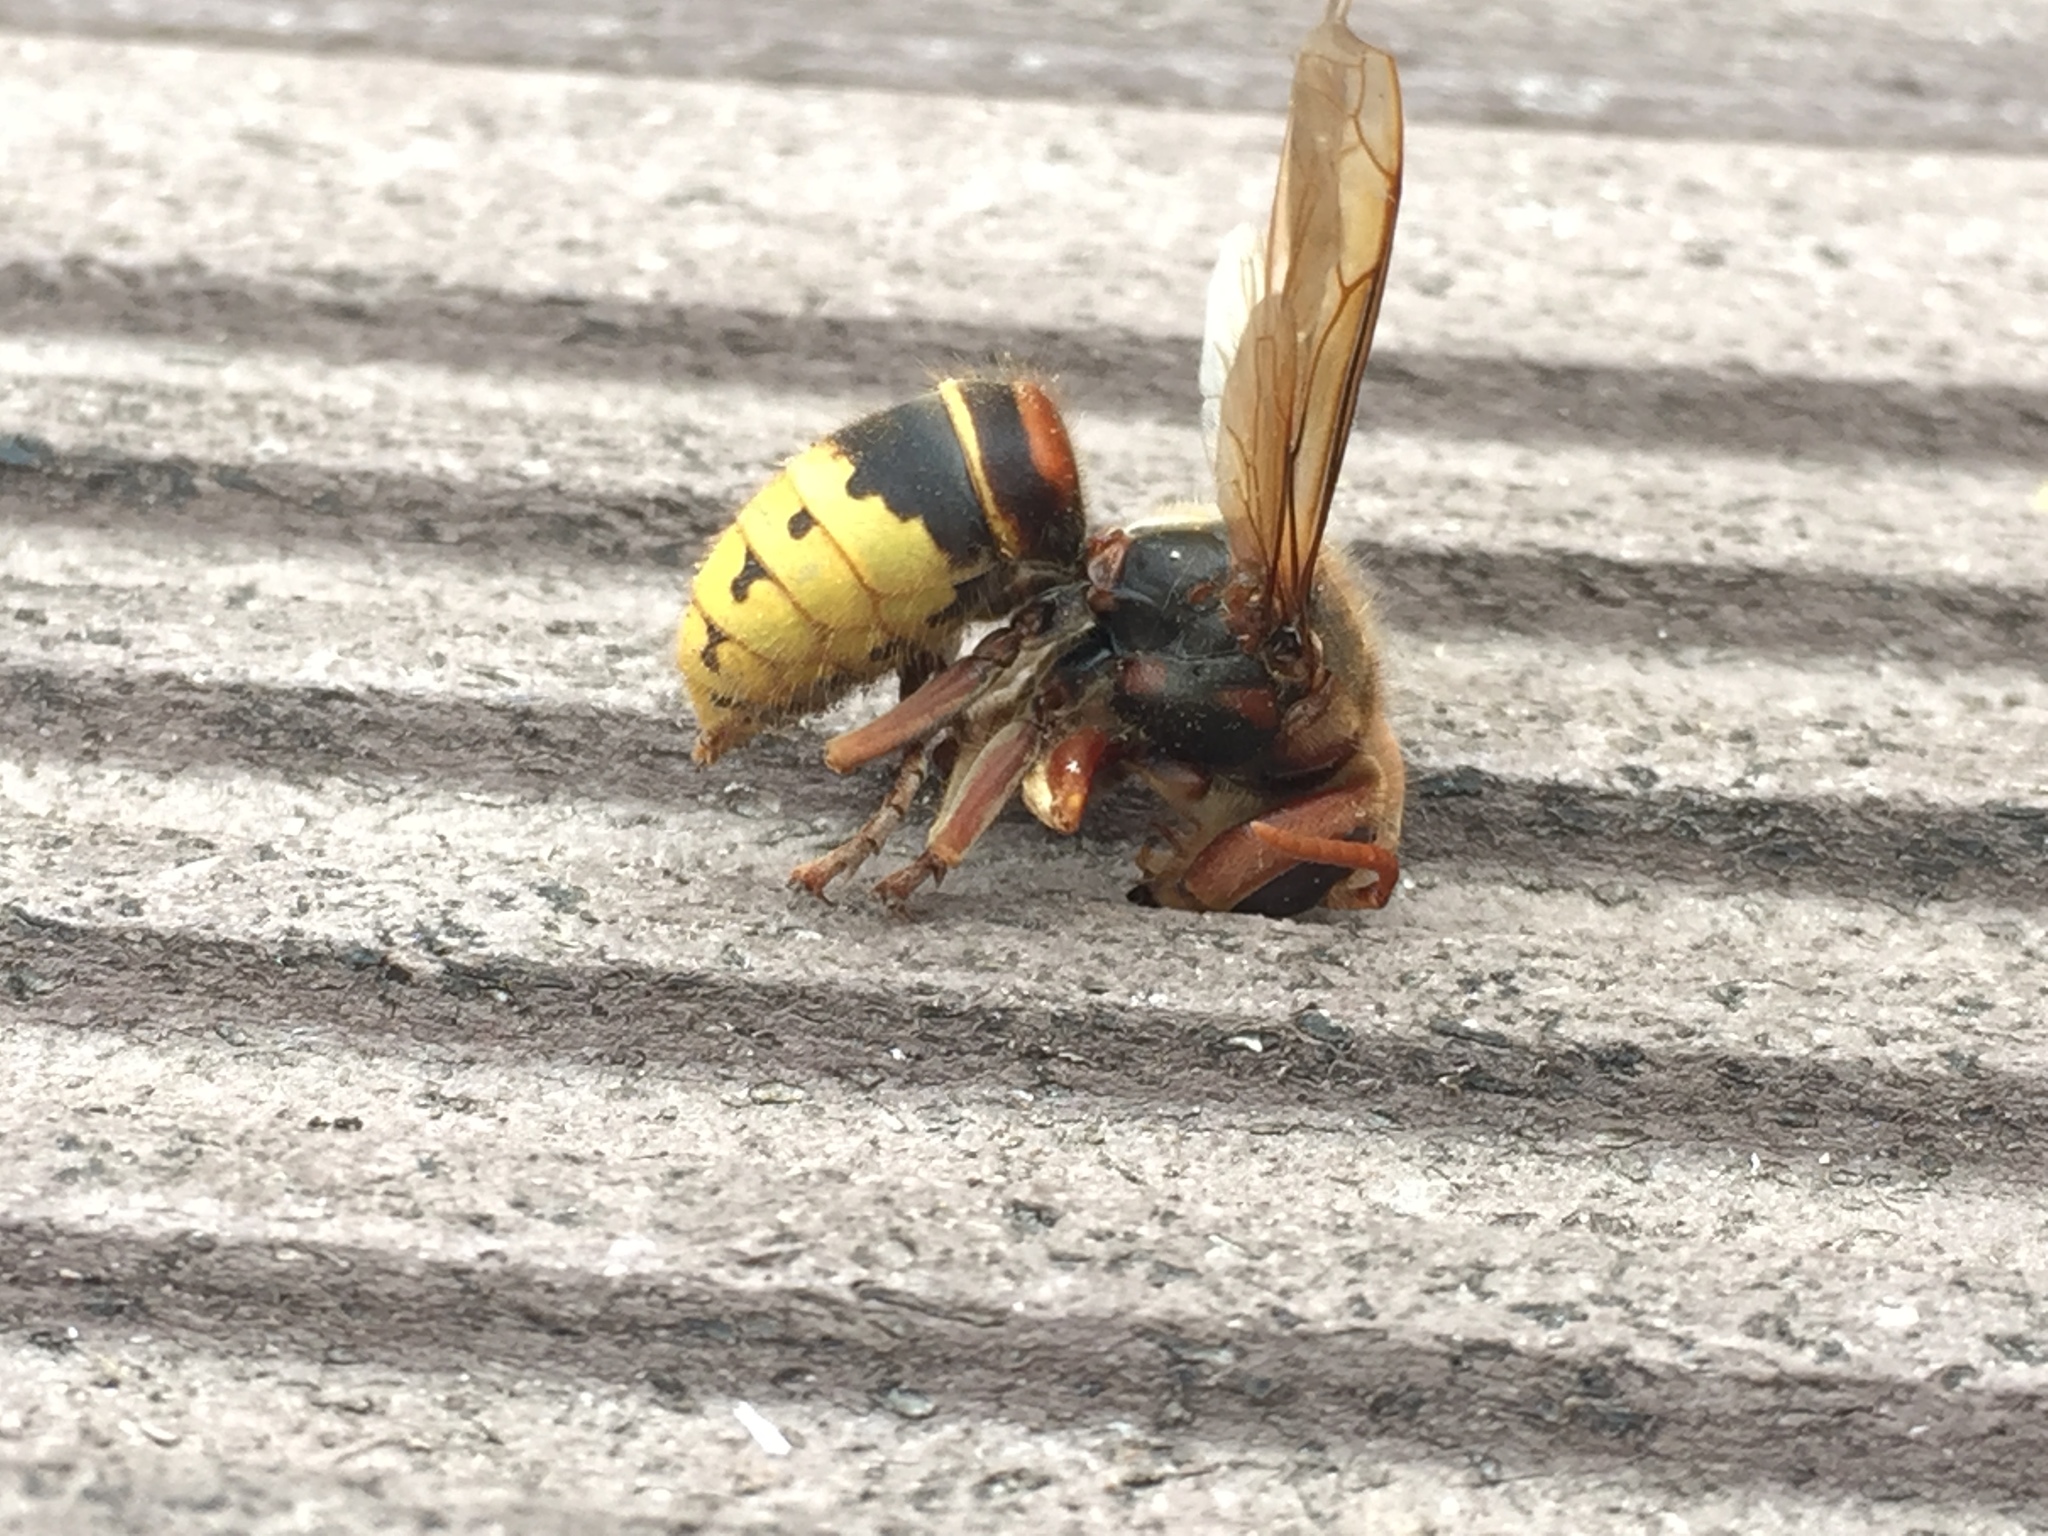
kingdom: Animalia
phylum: Arthropoda
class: Insecta
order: Hymenoptera
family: Vespidae
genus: Vespa
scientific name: Vespa crabro
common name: Hornet
